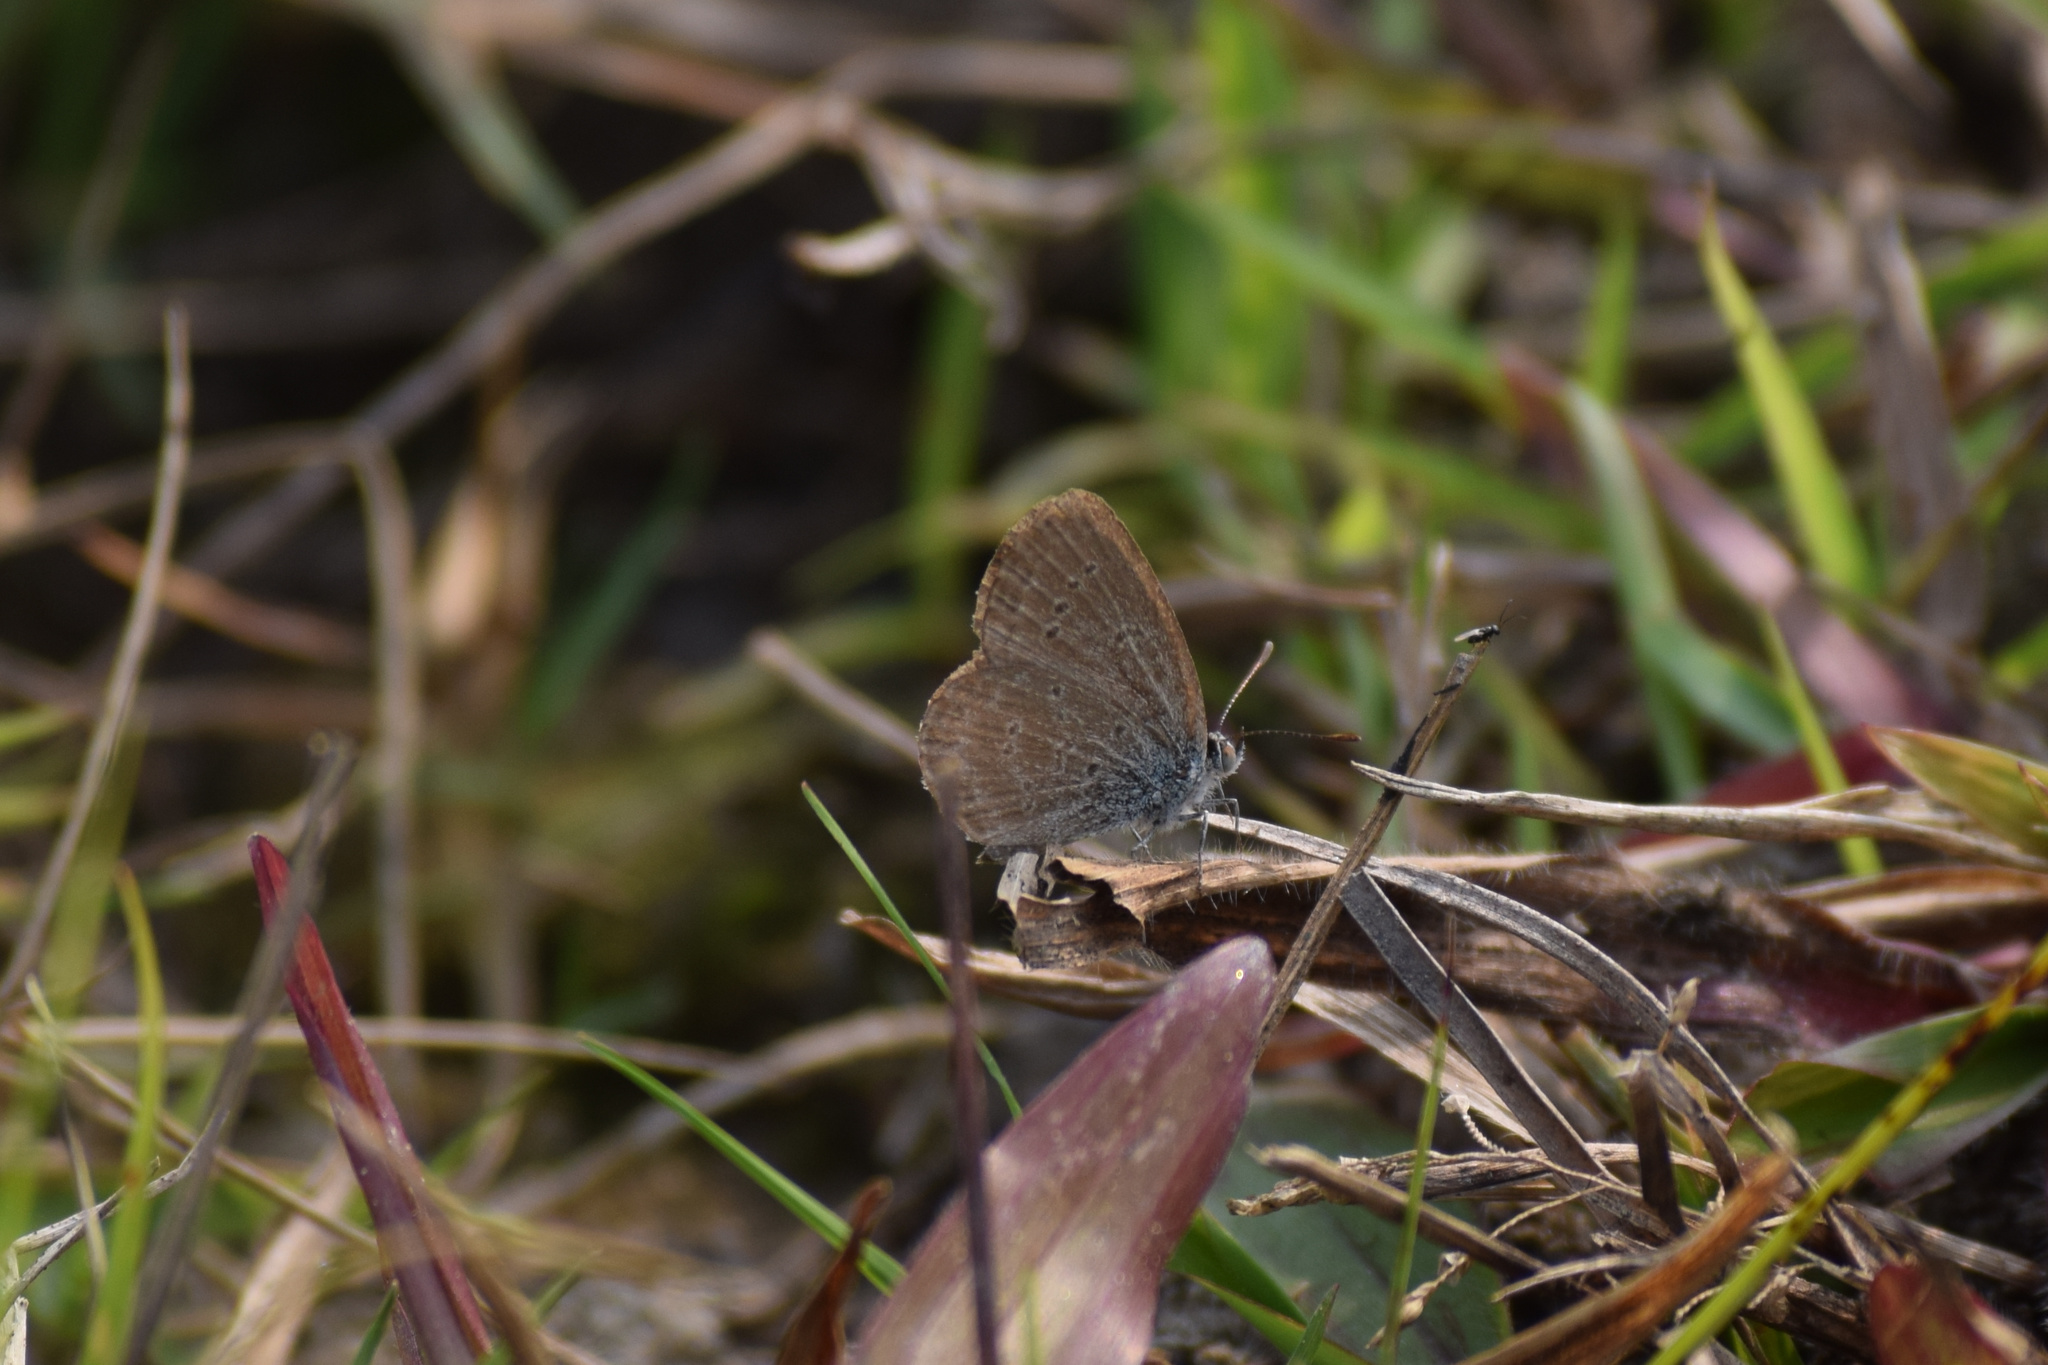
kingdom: Animalia
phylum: Arthropoda
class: Insecta
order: Lepidoptera
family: Lycaenidae
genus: Zizina
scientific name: Zizina otis
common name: Lesser grass blue
